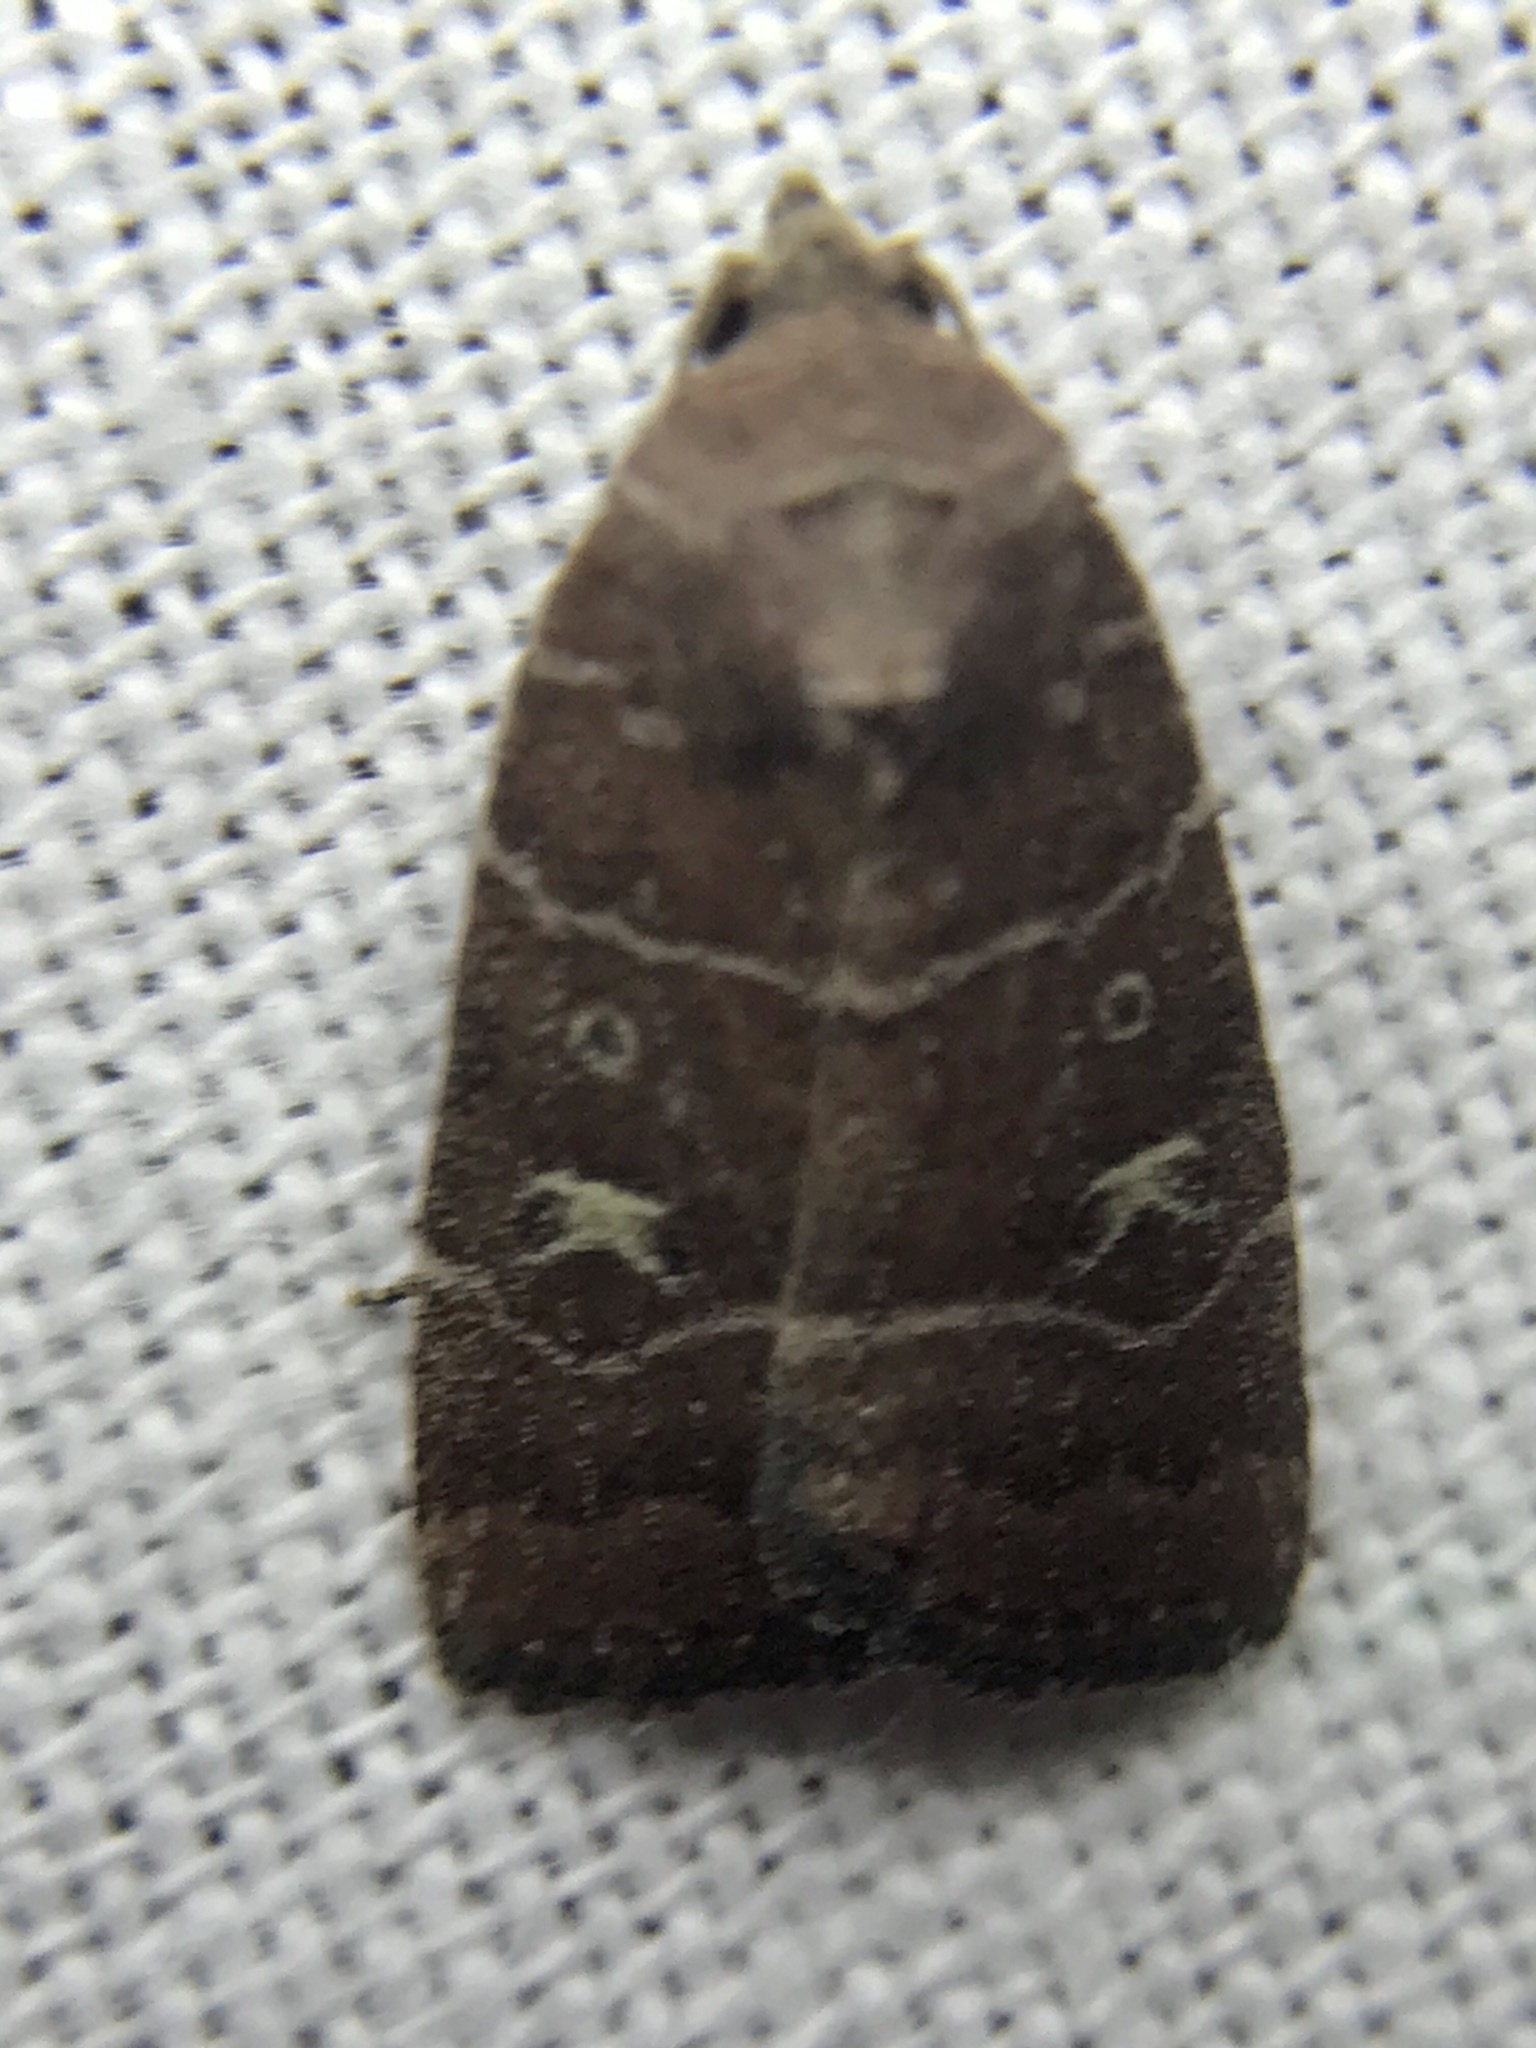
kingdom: Animalia
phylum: Arthropoda
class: Insecta
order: Lepidoptera
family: Noctuidae
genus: Elaphria
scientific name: Elaphria grata
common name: Grateful midget moth
